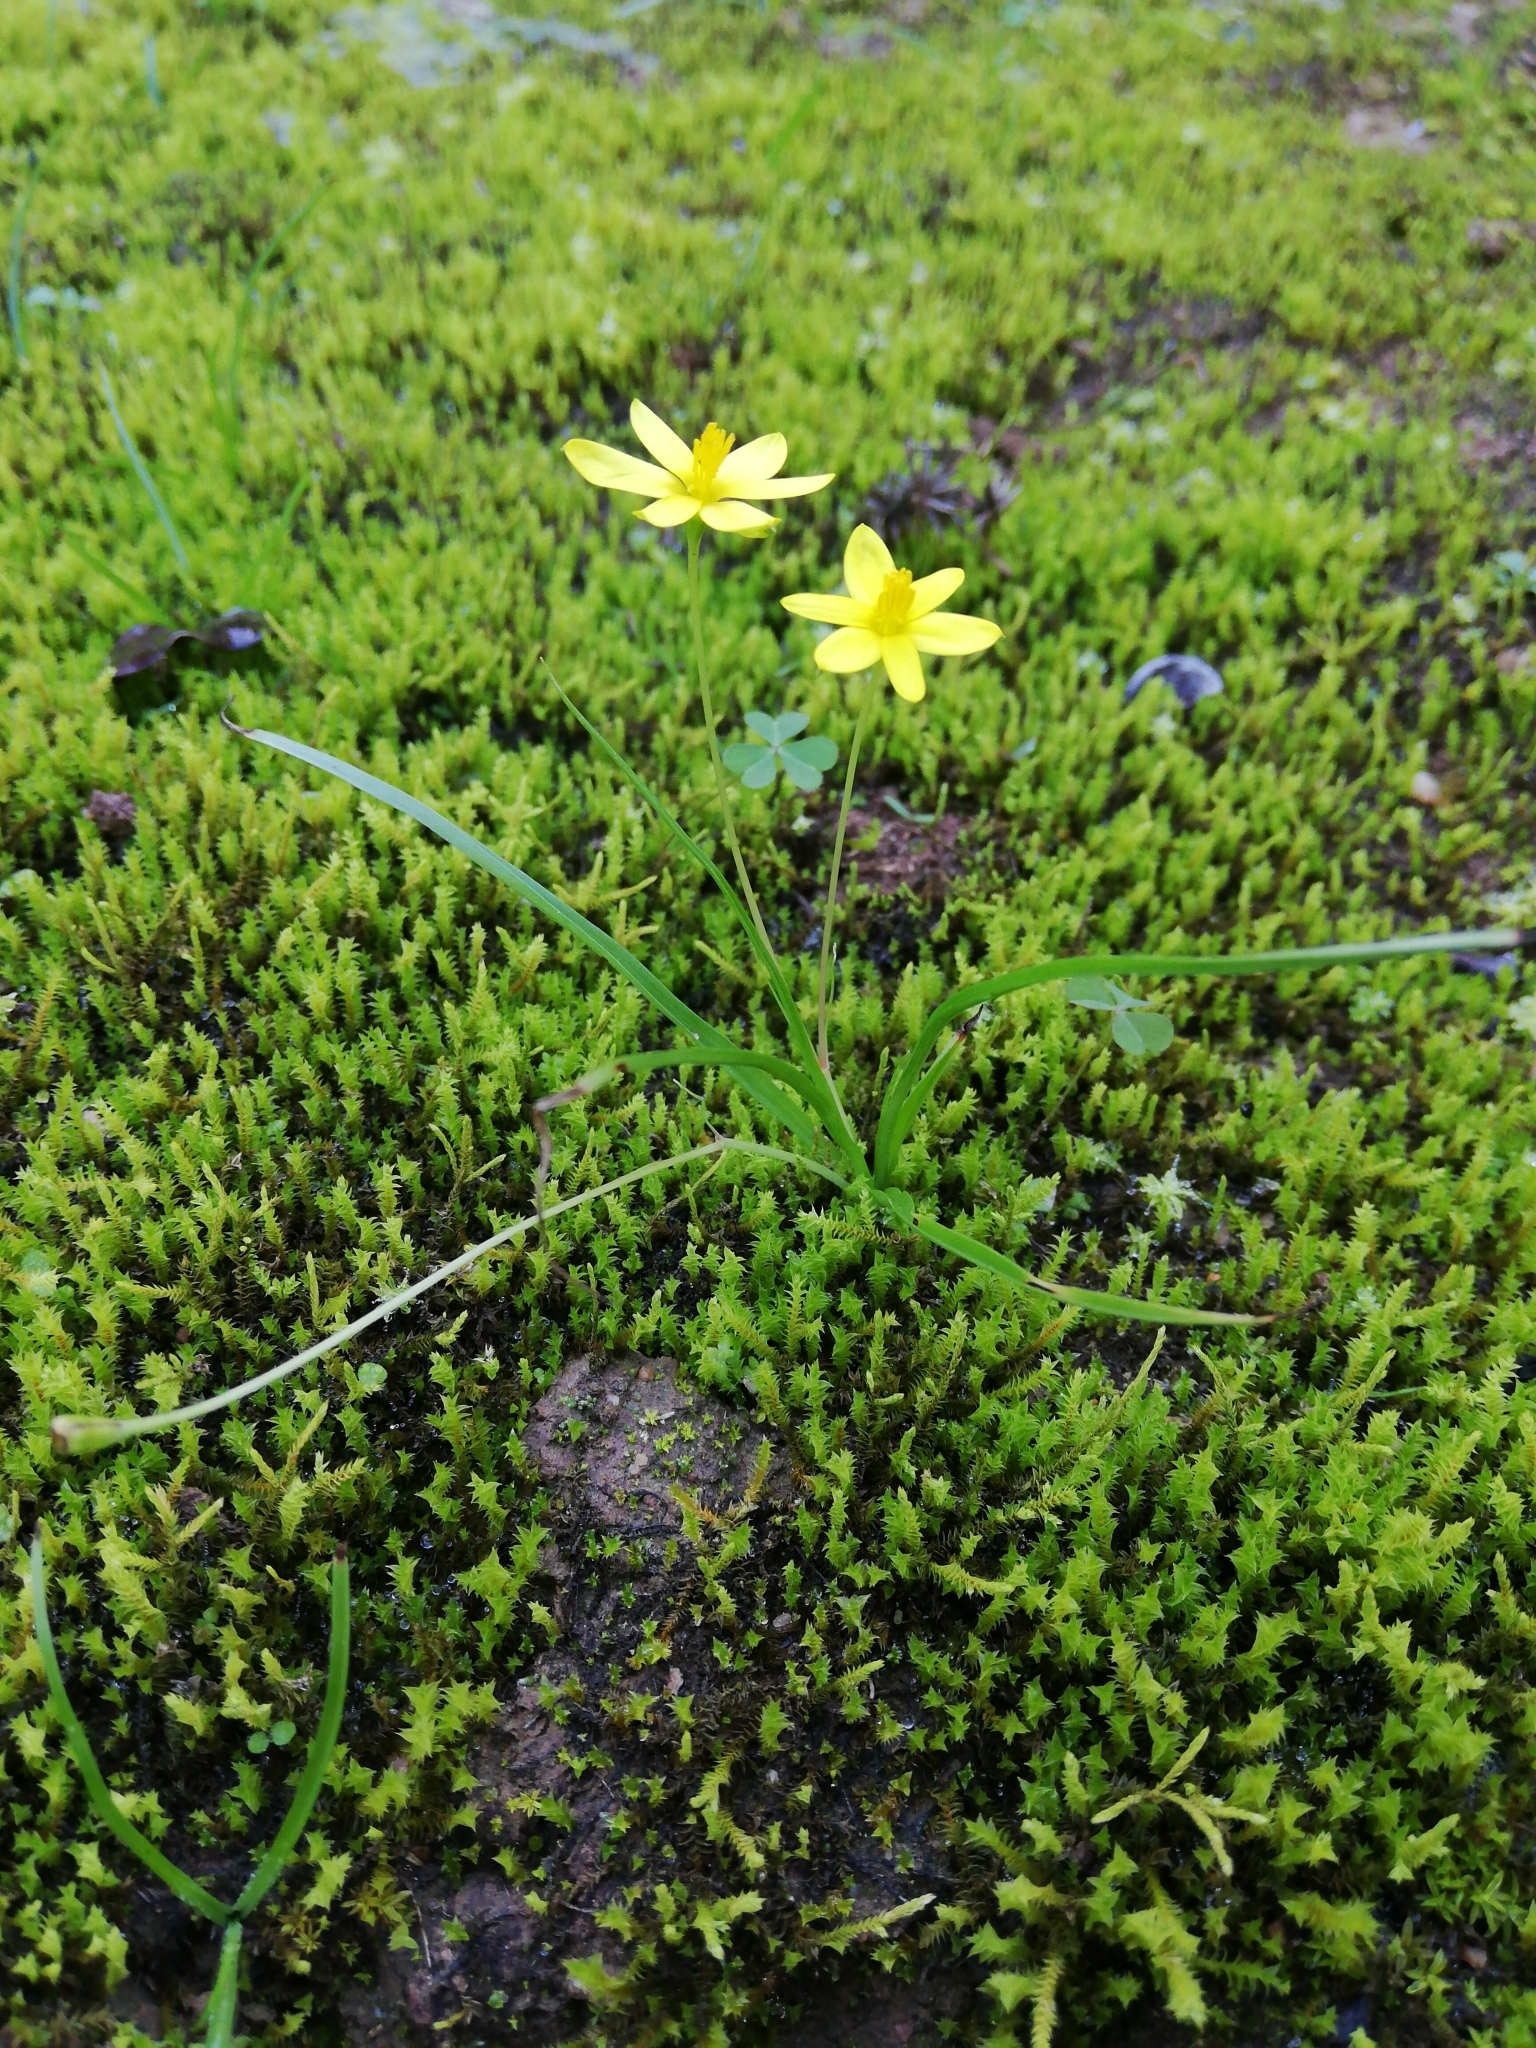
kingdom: Plantae
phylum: Tracheophyta
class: Liliopsida
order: Asparagales
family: Hypoxidaceae
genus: Pauridia
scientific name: Pauridia trifurcillata
